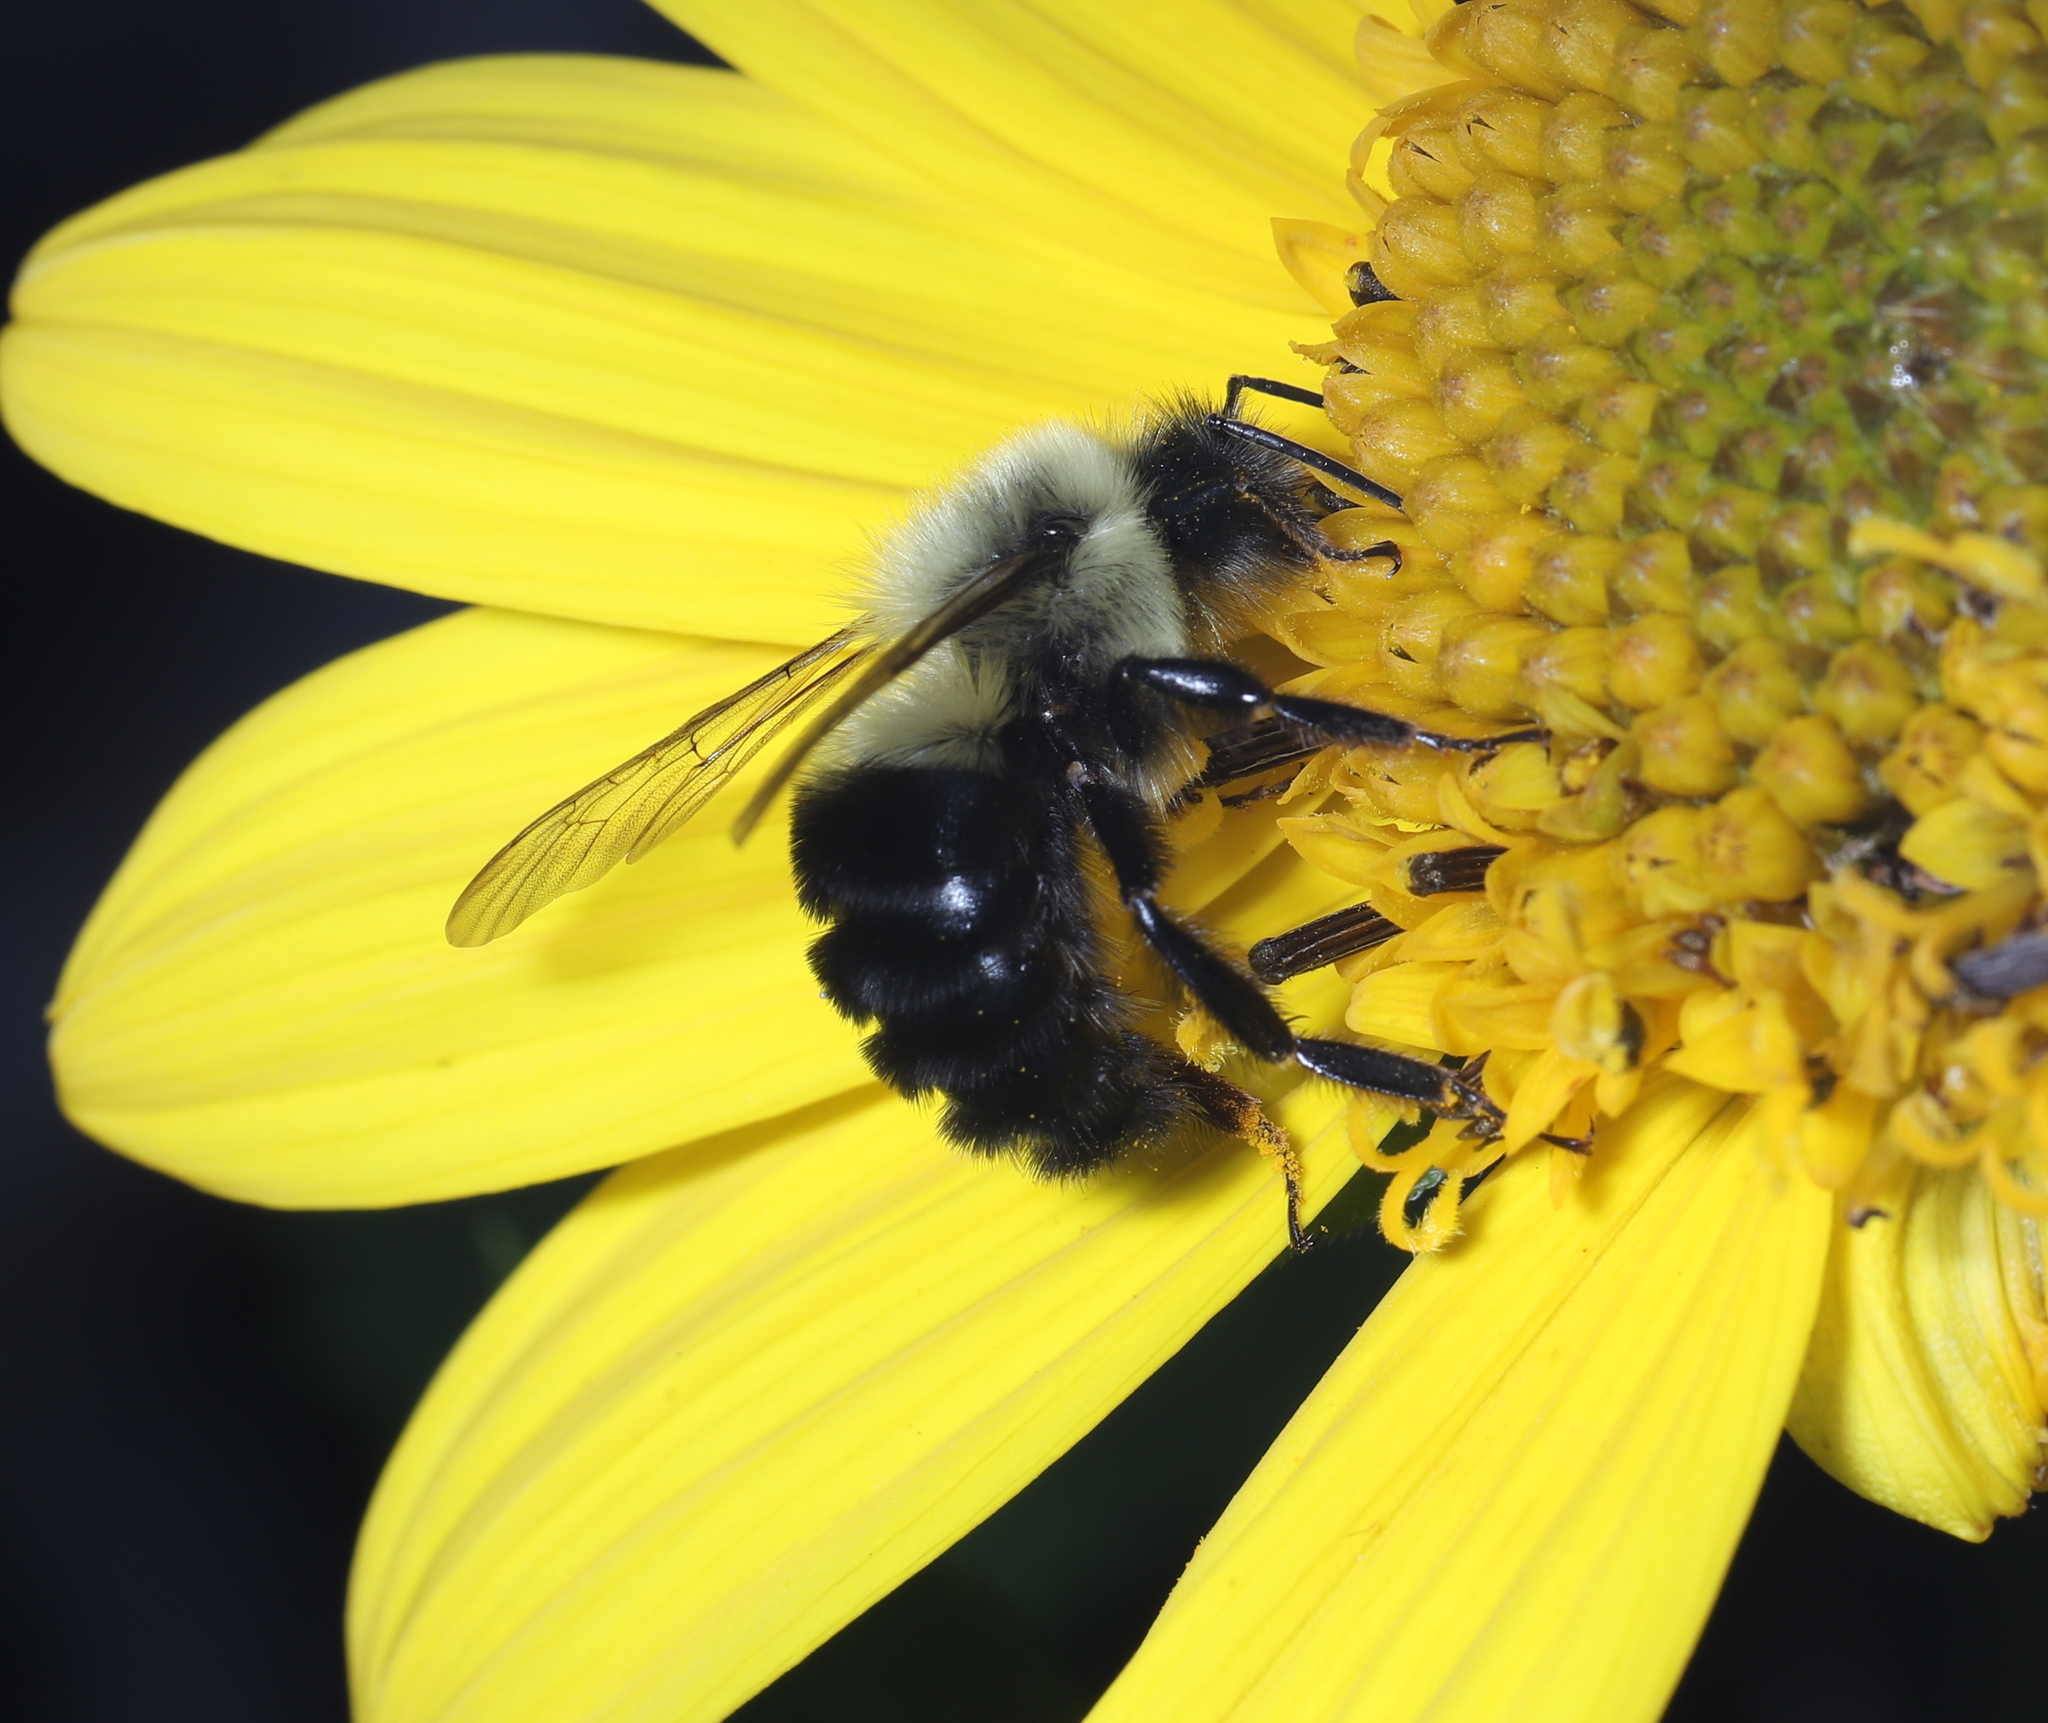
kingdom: Animalia
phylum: Arthropoda
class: Insecta
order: Hymenoptera
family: Apidae
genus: Bombus
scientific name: Bombus impatiens
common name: Common eastern bumble bee
